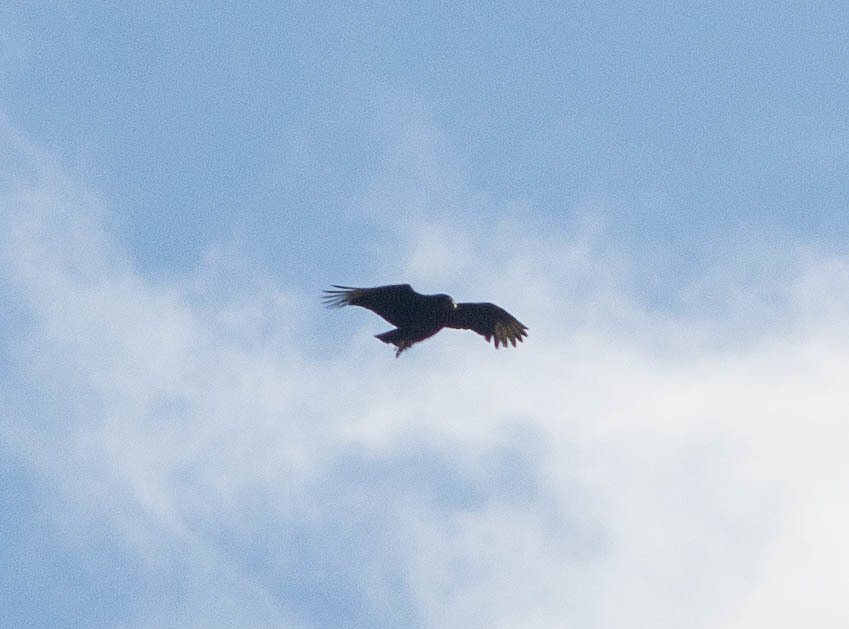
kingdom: Animalia
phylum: Chordata
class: Aves
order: Accipitriformes
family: Cathartidae
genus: Coragyps
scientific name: Coragyps atratus
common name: Black vulture
